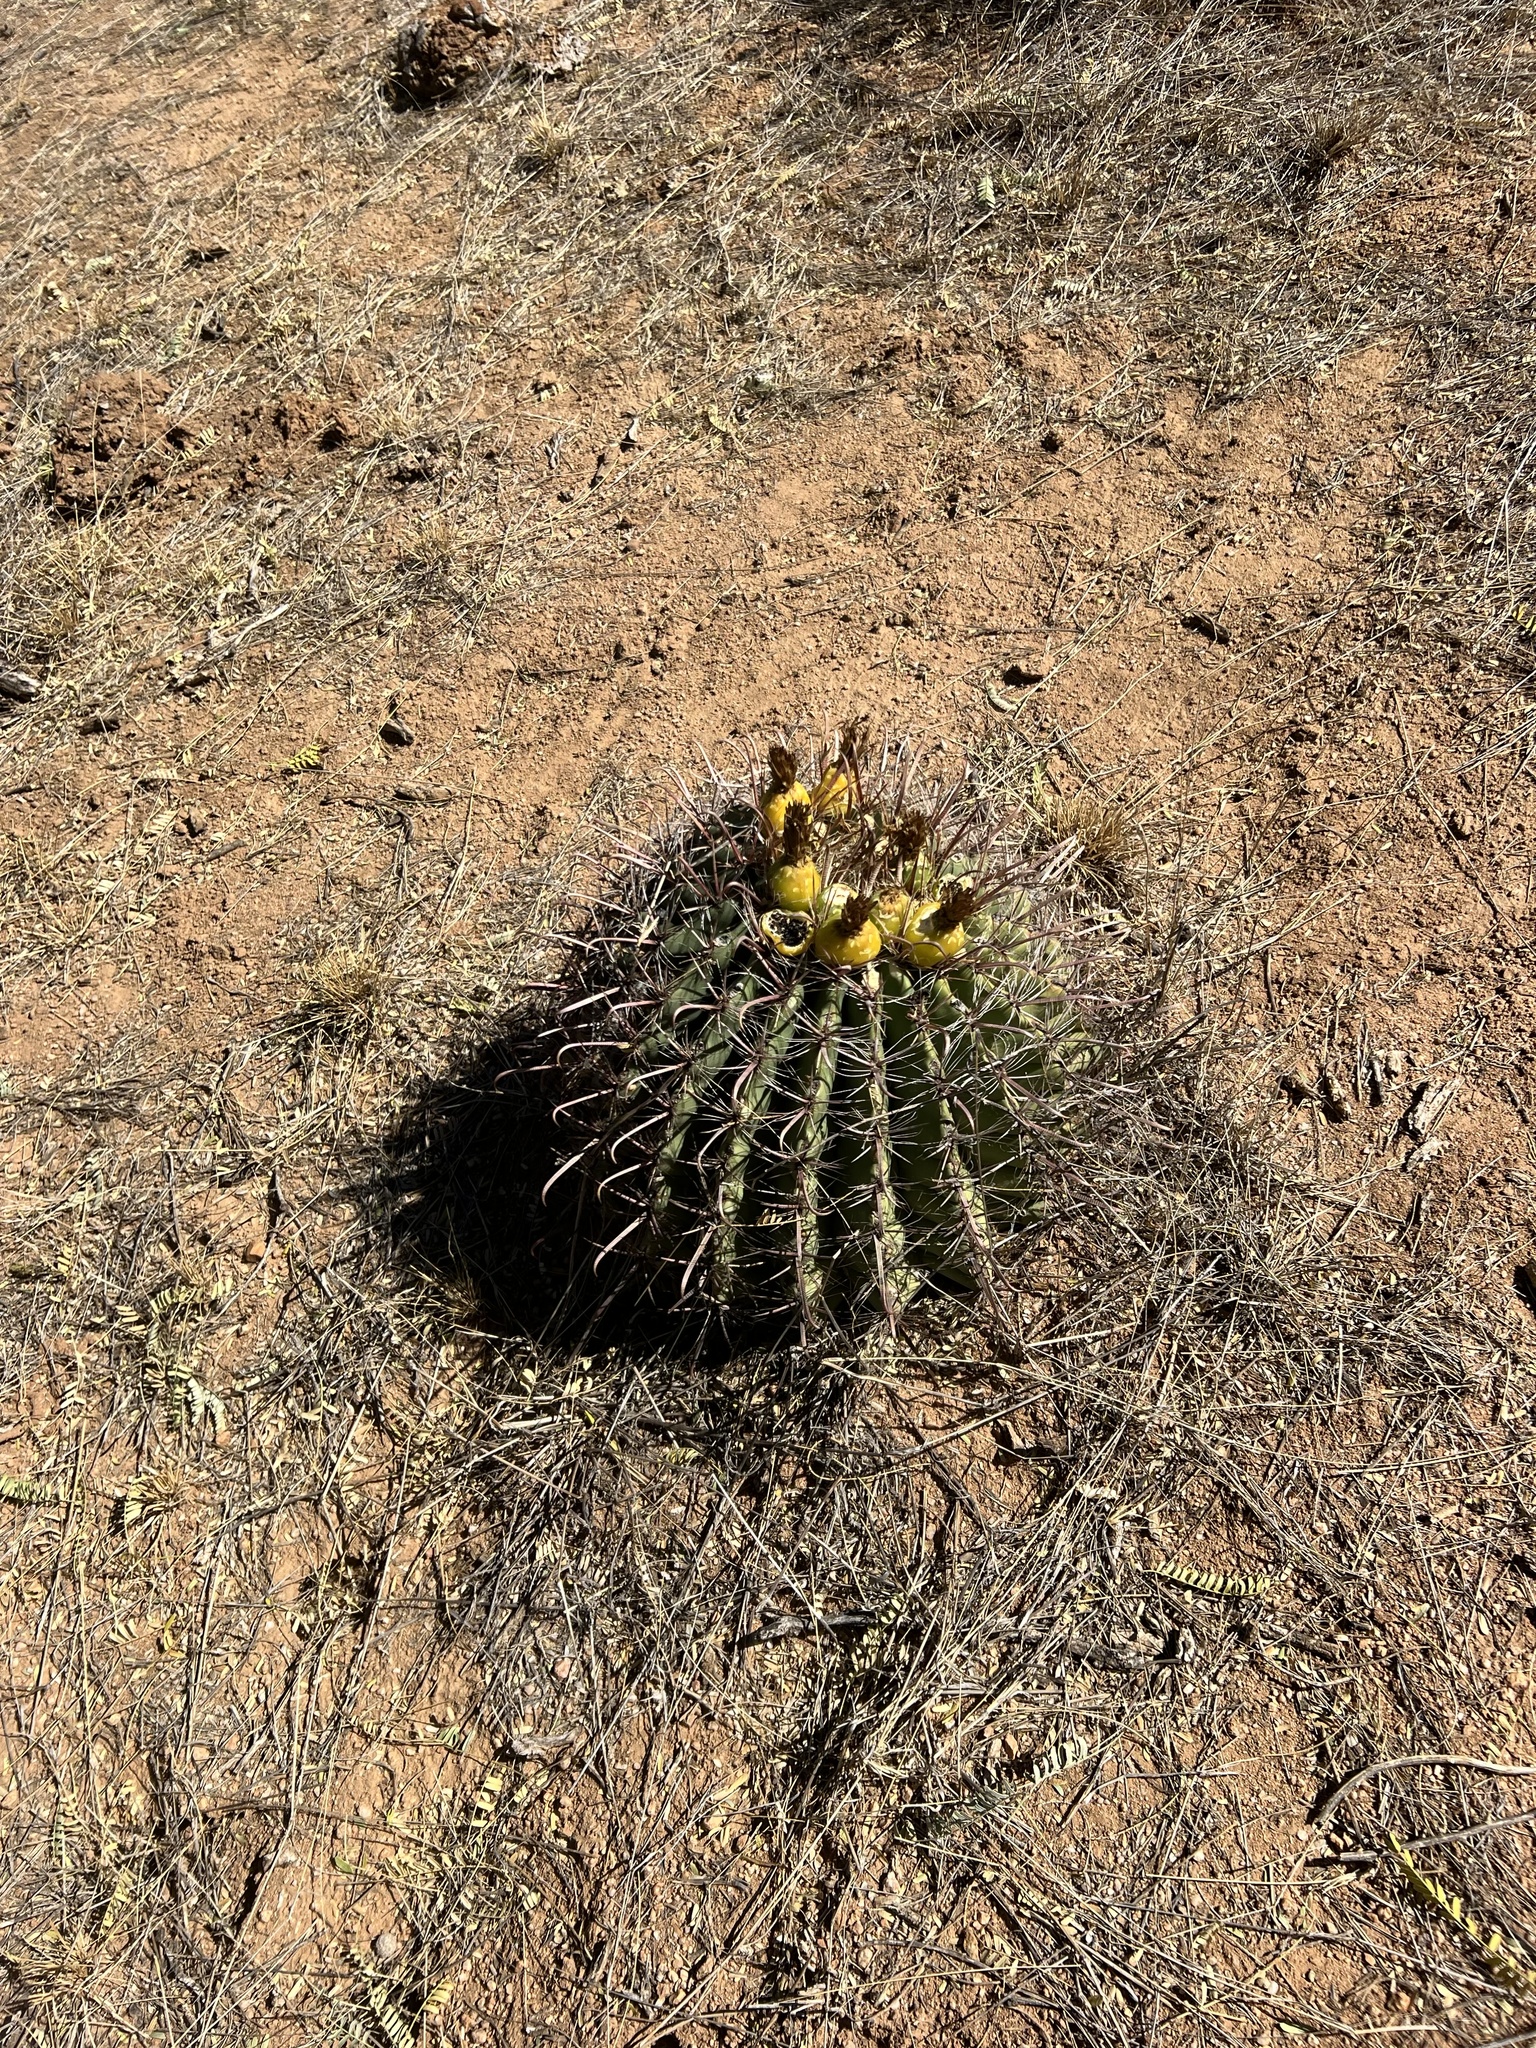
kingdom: Plantae
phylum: Tracheophyta
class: Magnoliopsida
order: Caryophyllales
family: Cactaceae
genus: Ferocactus
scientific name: Ferocactus wislizeni
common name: Candy barrel cactus
